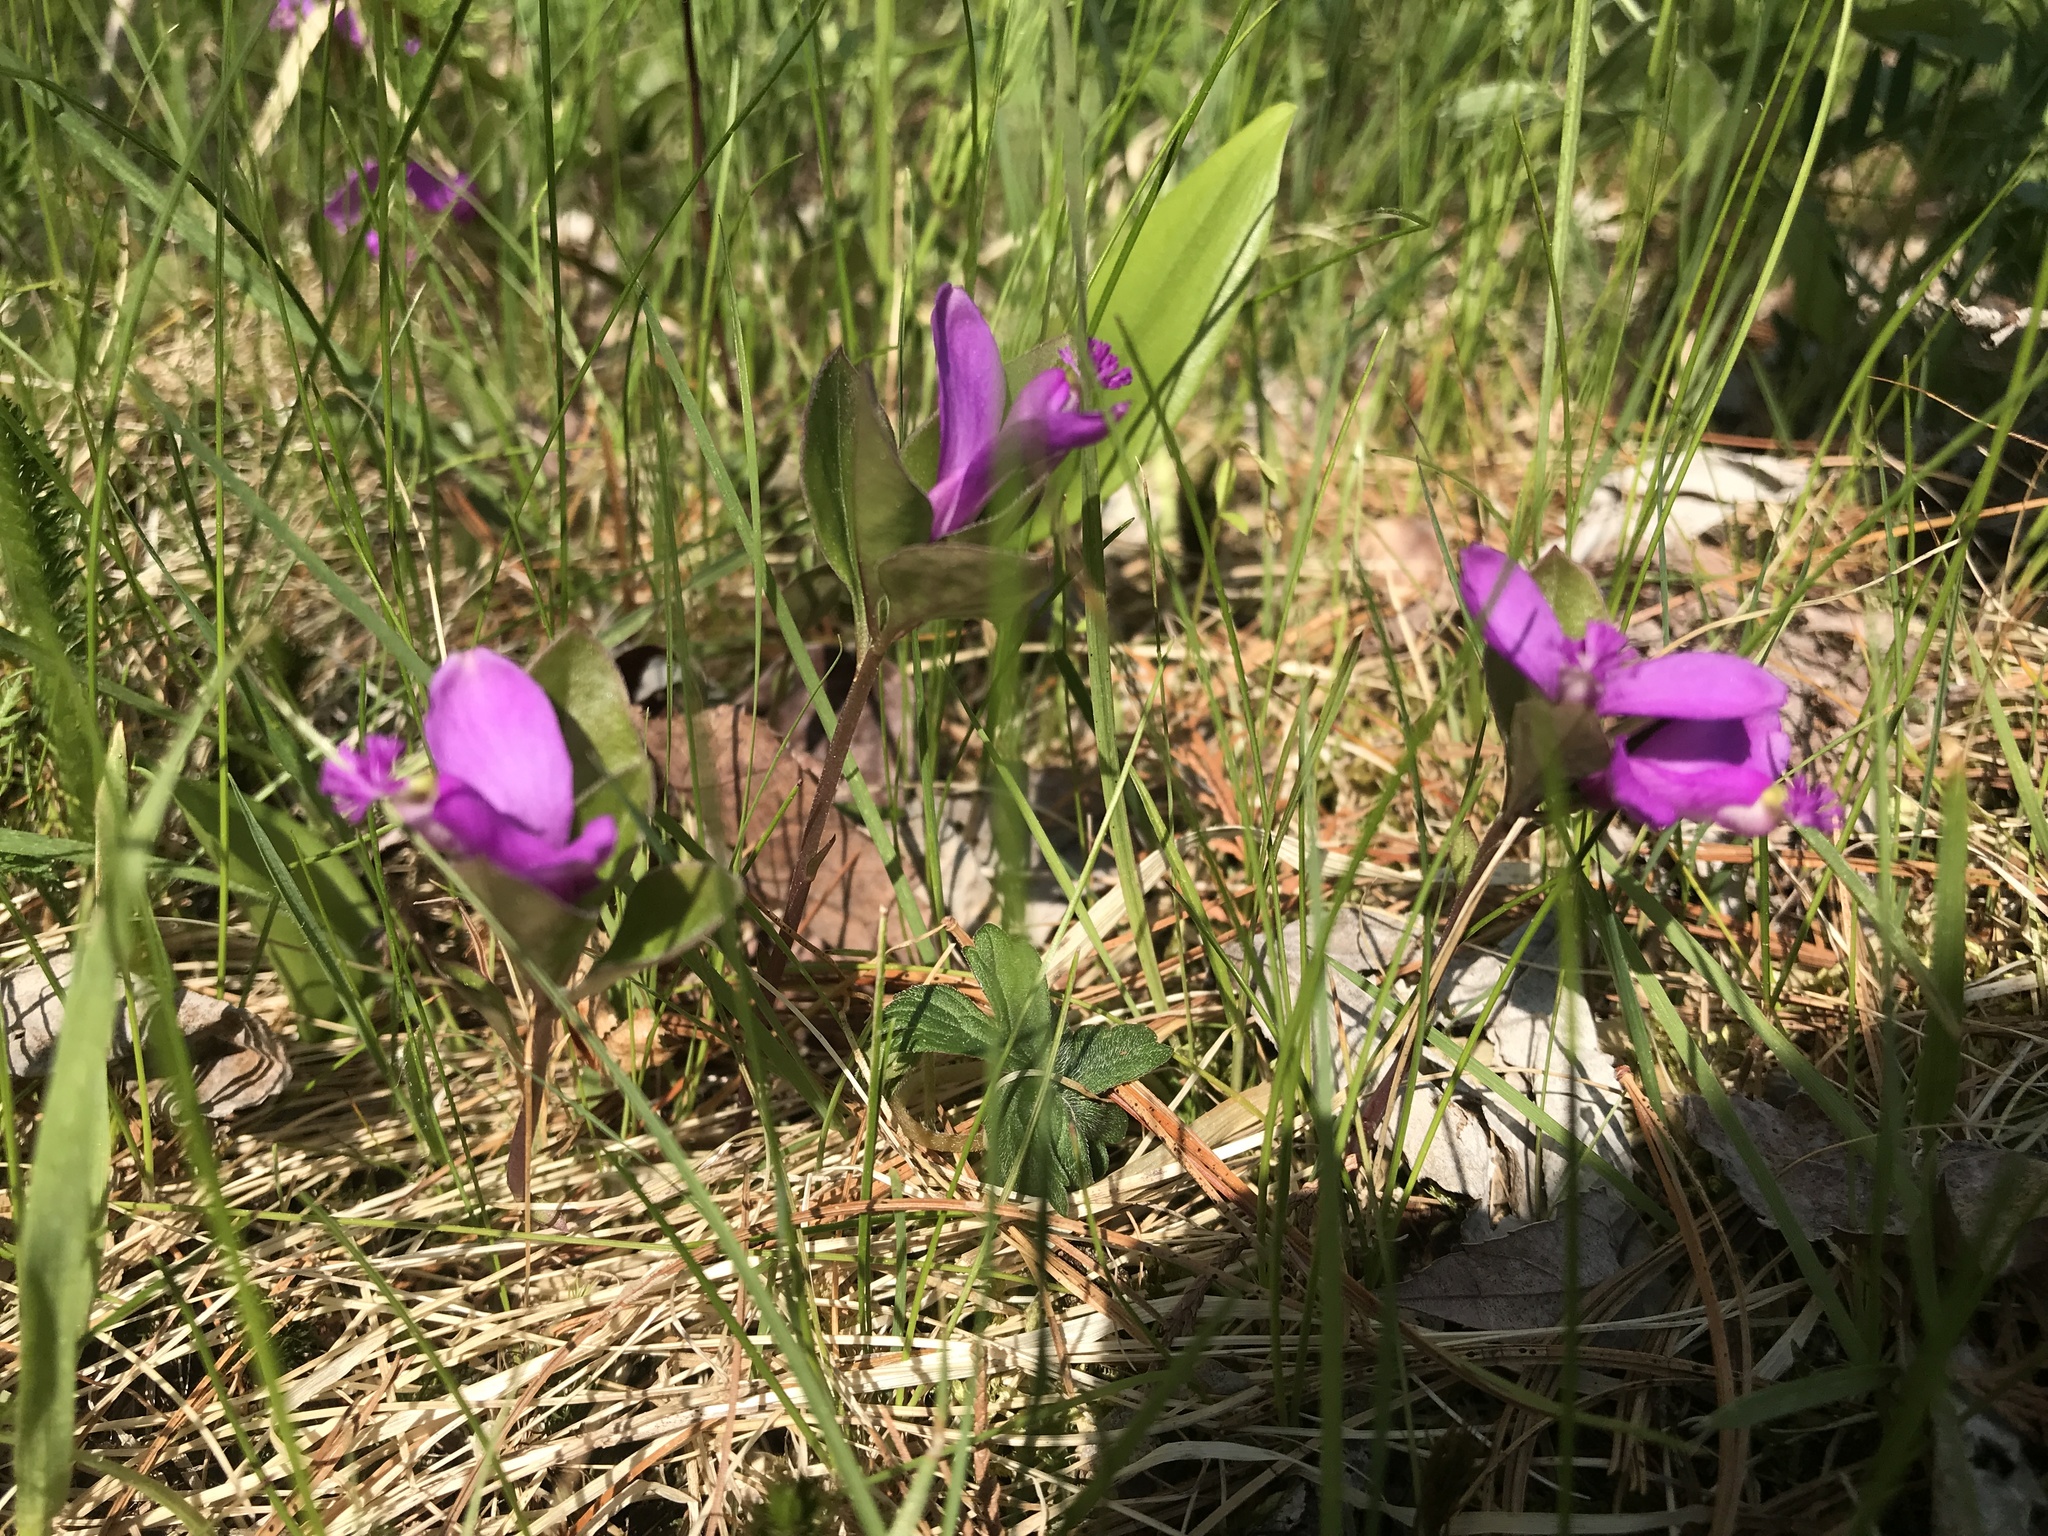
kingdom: Plantae
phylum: Tracheophyta
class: Magnoliopsida
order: Fabales
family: Polygalaceae
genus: Polygaloides
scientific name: Polygaloides paucifolia
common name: Bird-on-the-wing
